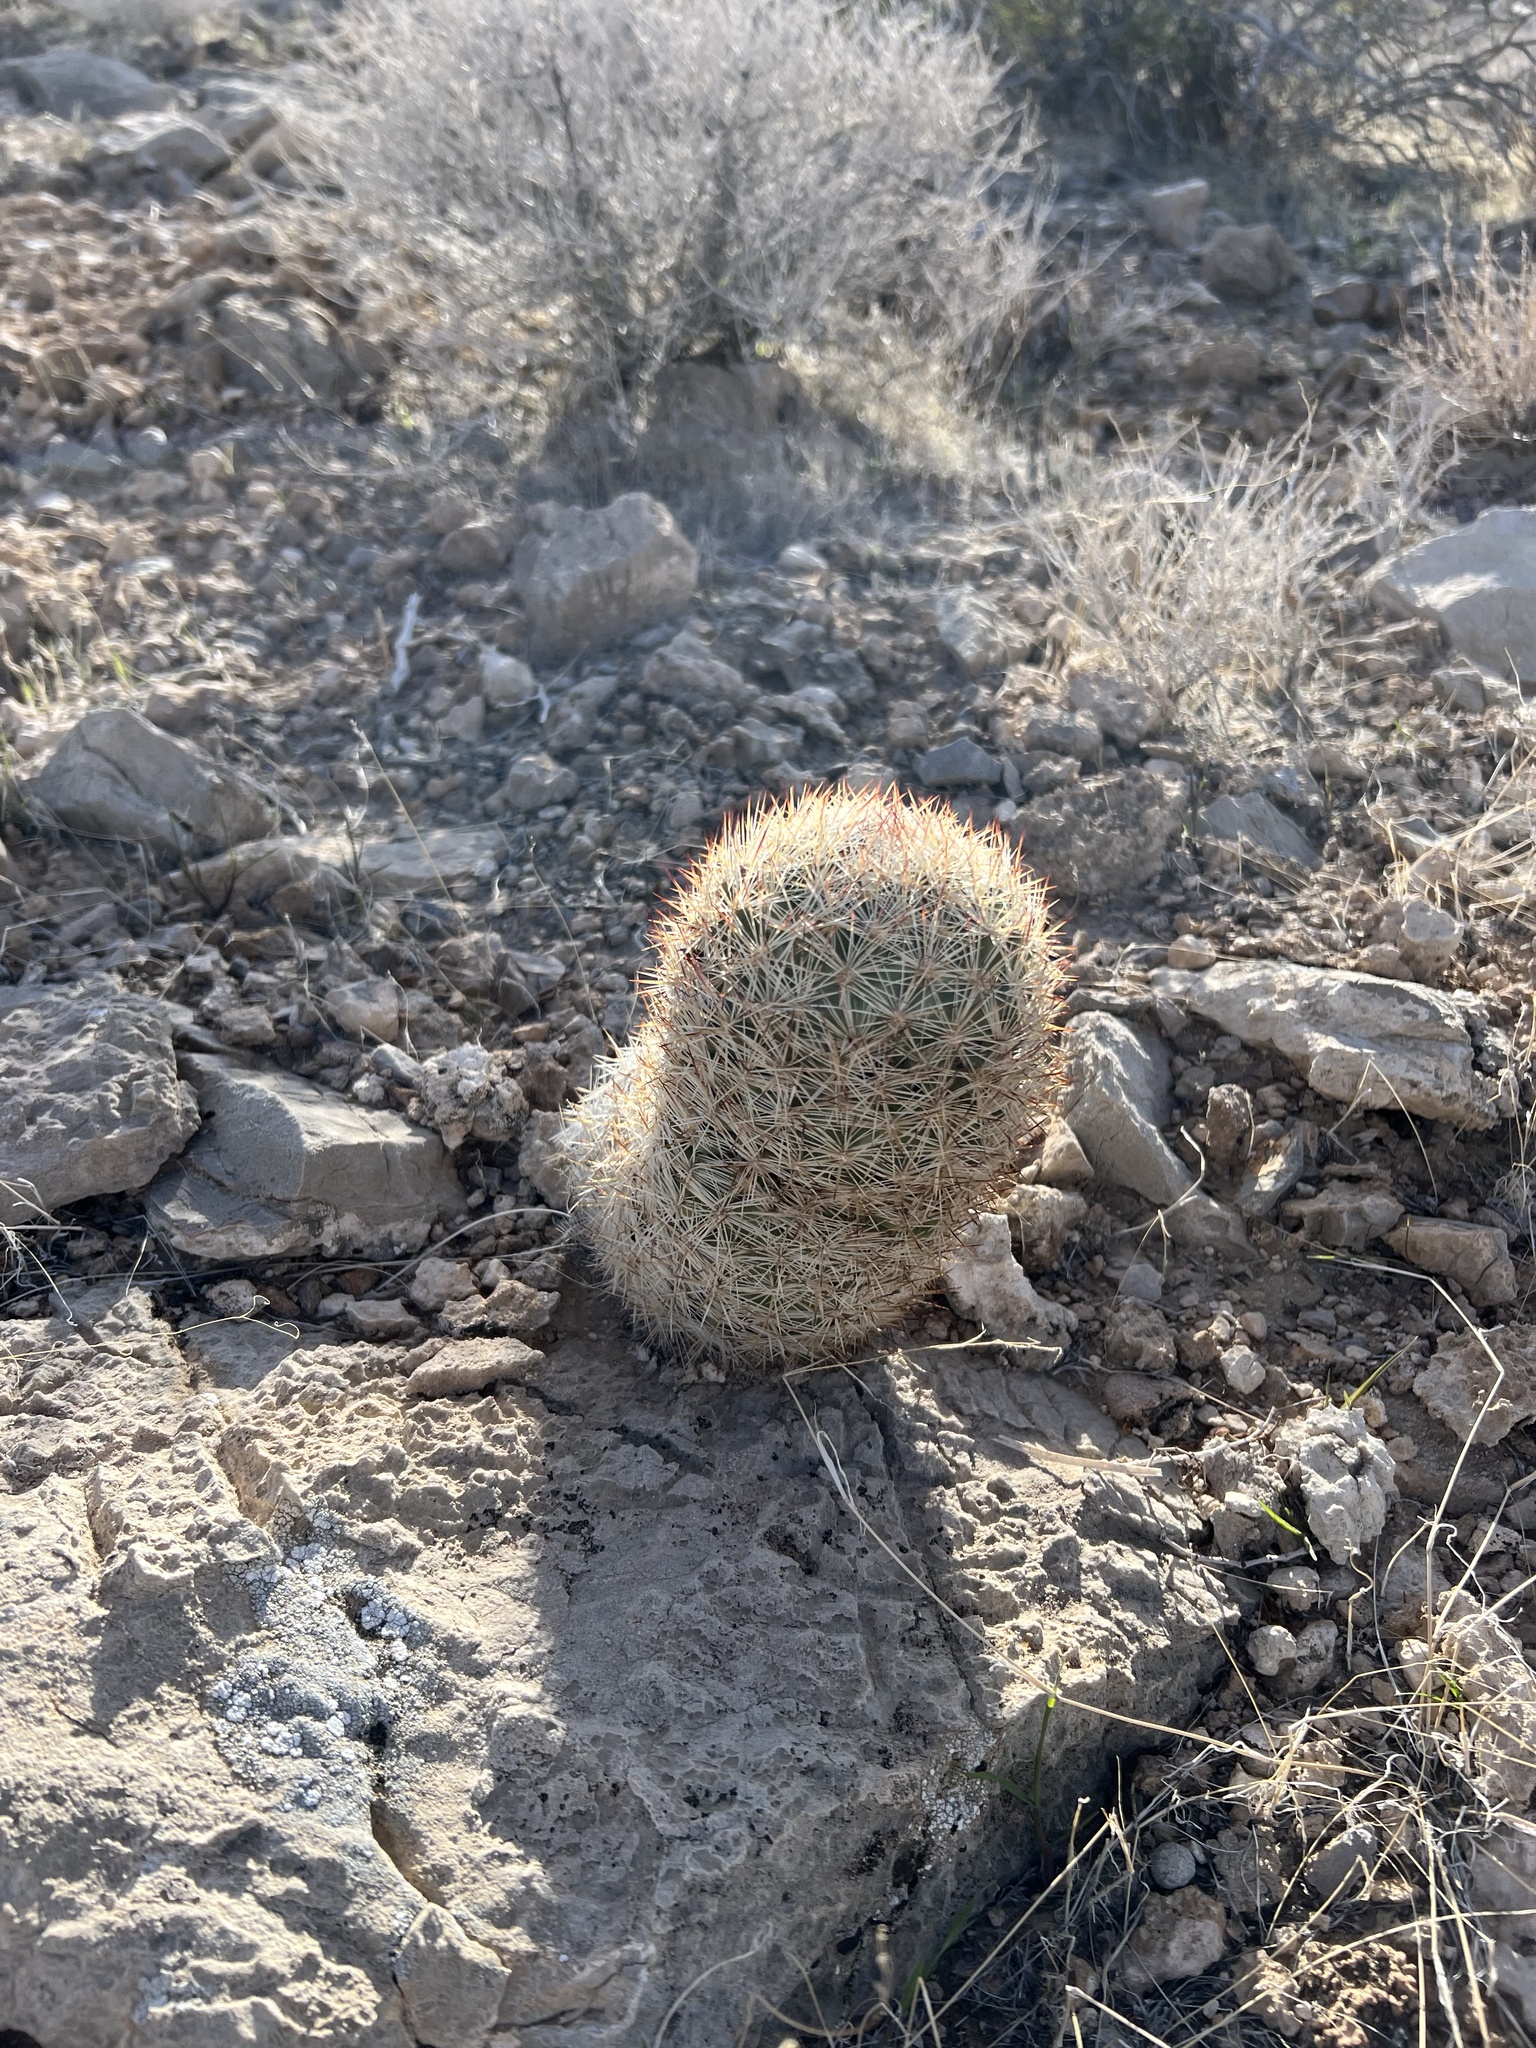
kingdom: Plantae
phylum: Tracheophyta
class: Magnoliopsida
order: Caryophyllales
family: Cactaceae
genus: Pelecyphora
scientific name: Pelecyphora dasyacantha
